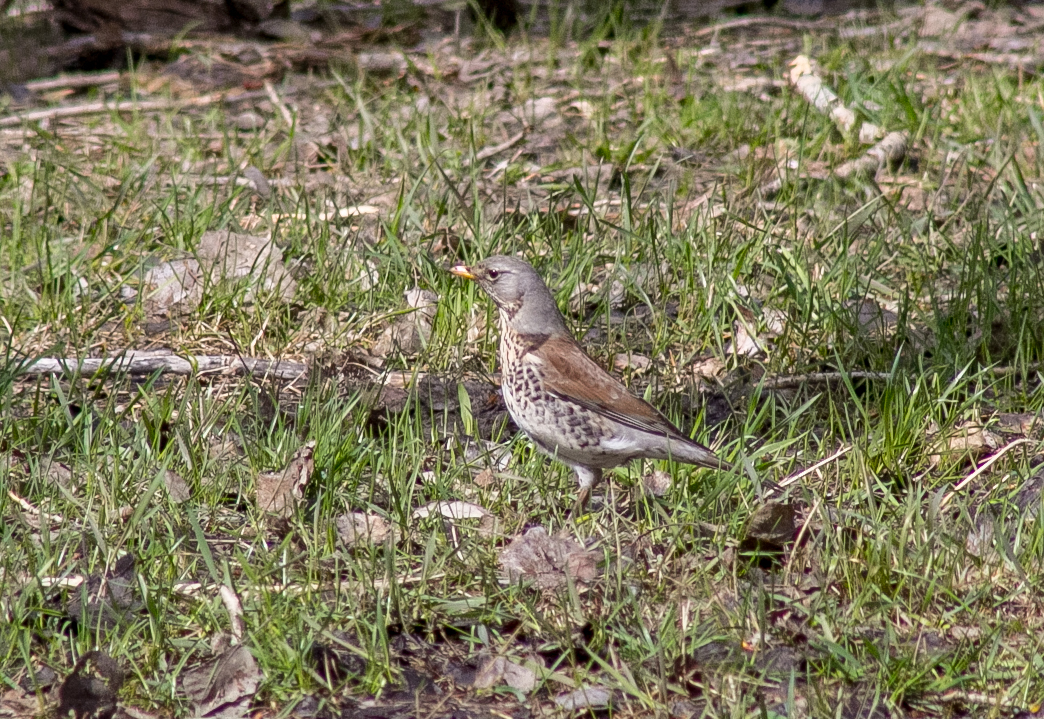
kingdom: Animalia
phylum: Chordata
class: Aves
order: Passeriformes
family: Turdidae
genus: Turdus
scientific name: Turdus pilaris
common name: Fieldfare
